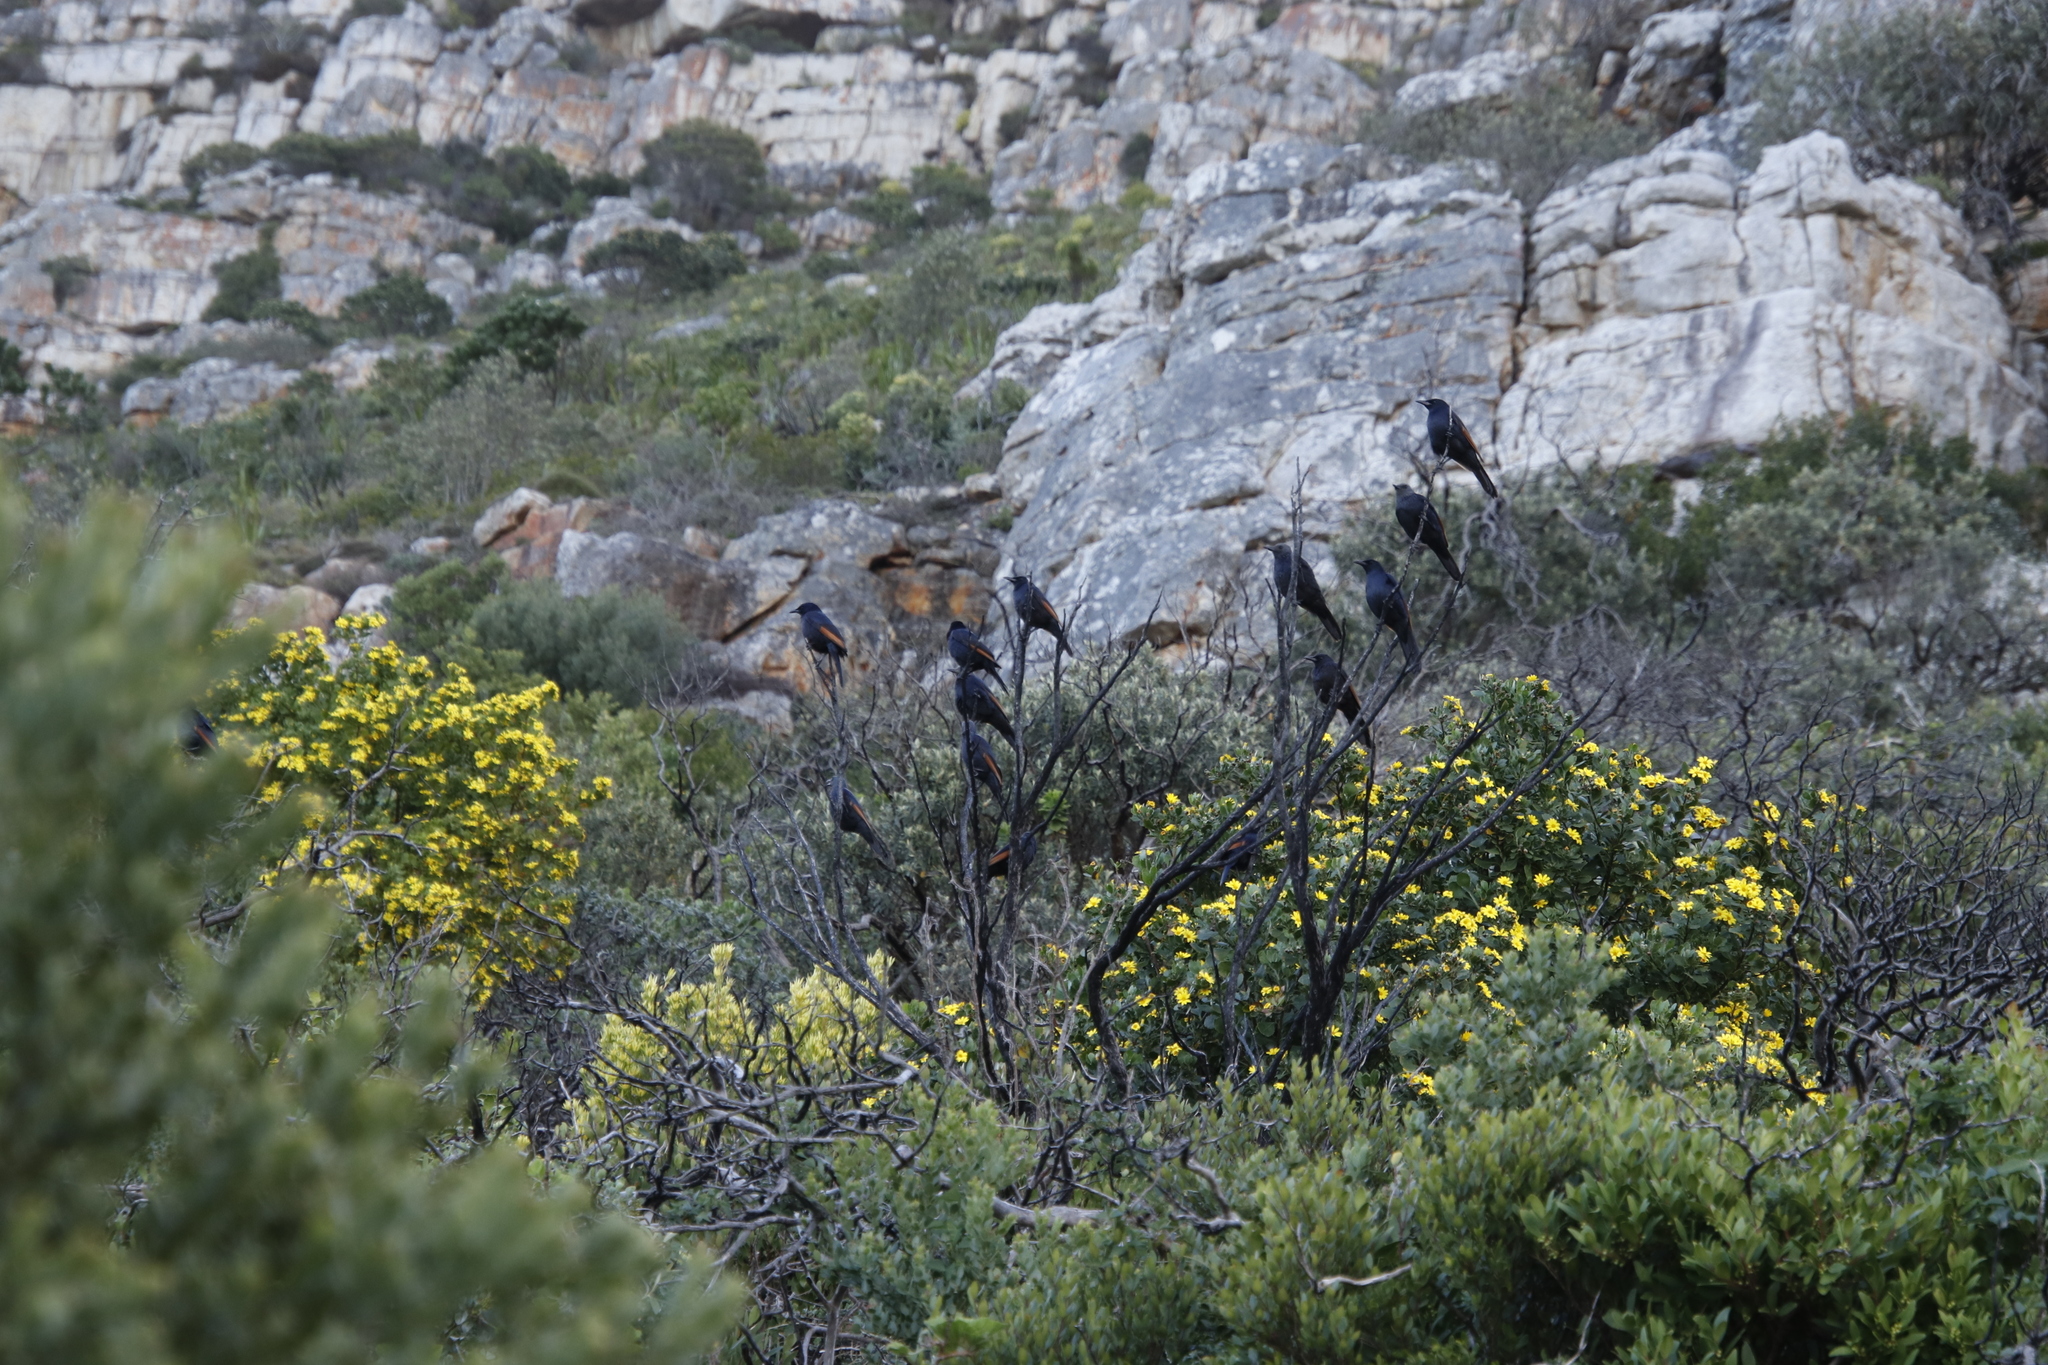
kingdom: Animalia
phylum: Chordata
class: Aves
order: Passeriformes
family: Sturnidae
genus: Onychognathus
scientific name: Onychognathus morio
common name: Red-winged starling
